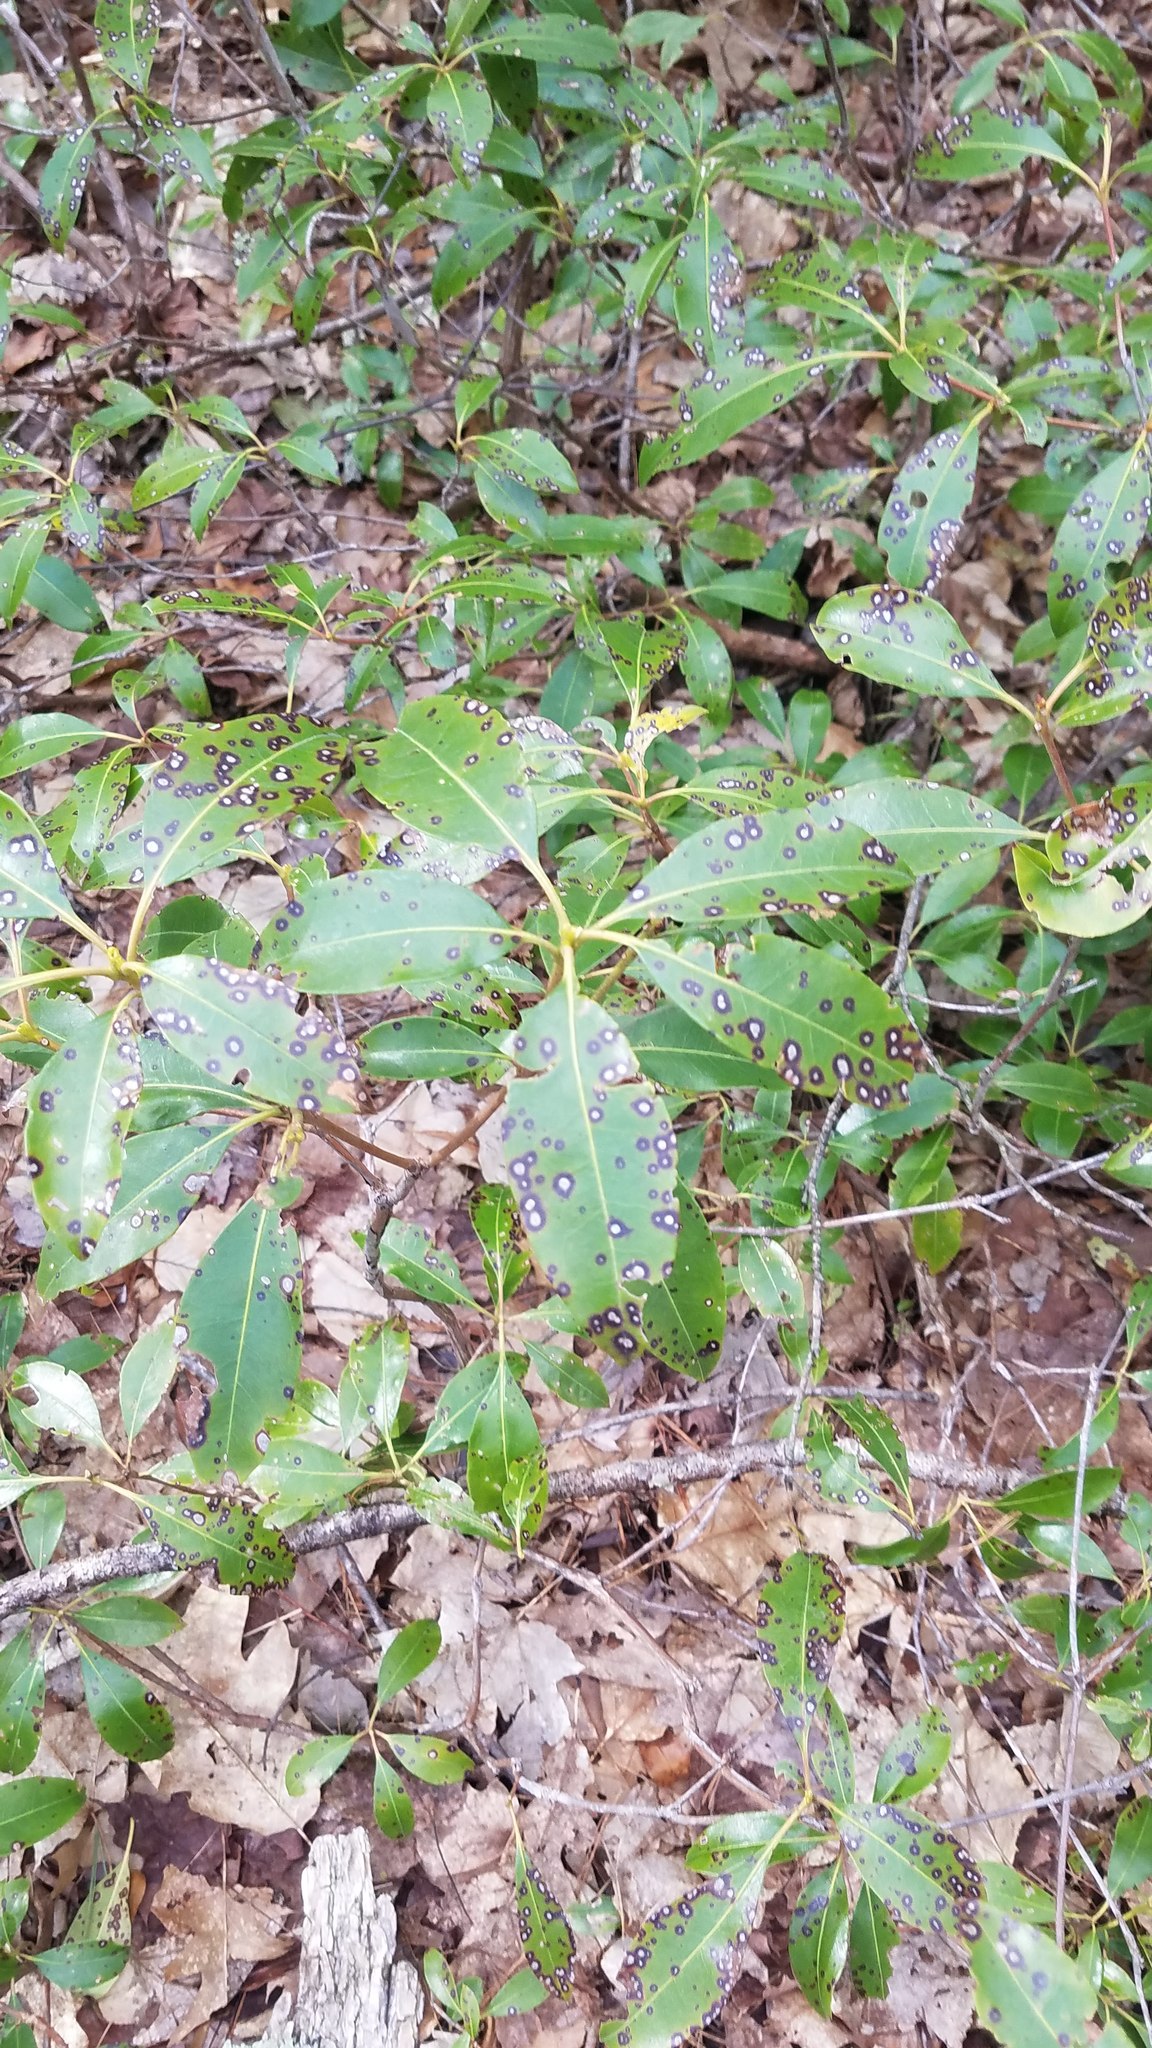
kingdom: Plantae
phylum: Tracheophyta
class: Magnoliopsida
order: Ericales
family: Ericaceae
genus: Kalmia
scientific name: Kalmia latifolia
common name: Mountain-laurel
